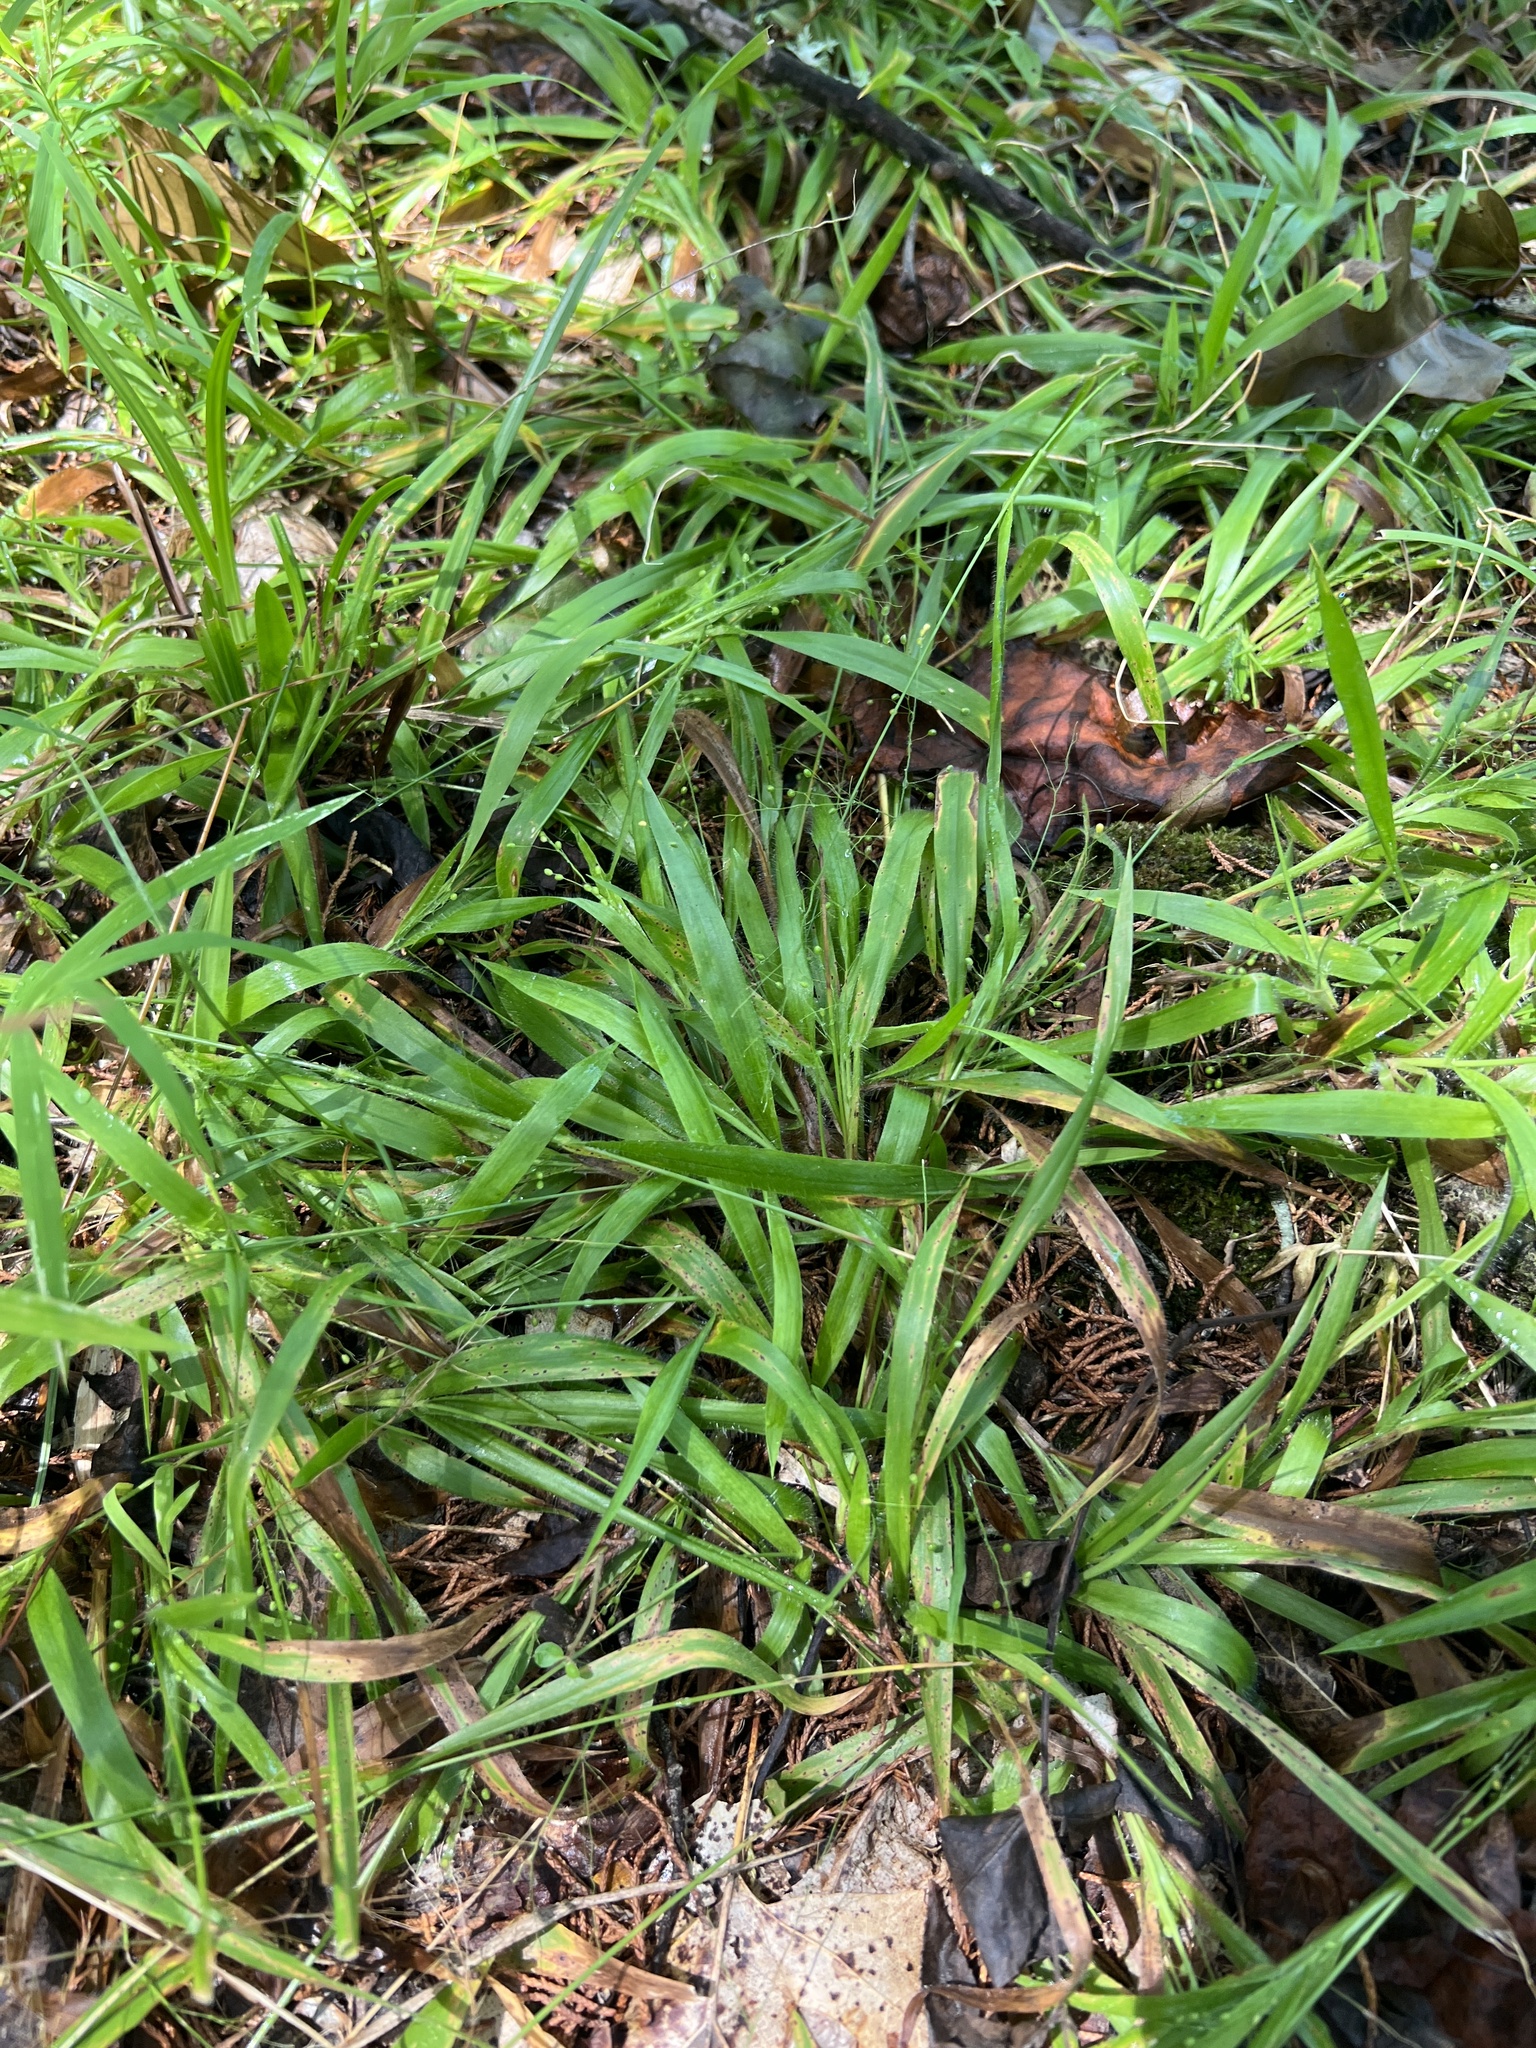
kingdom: Plantae
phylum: Tracheophyta
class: Liliopsida
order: Poales
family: Poaceae
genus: Dichanthelium
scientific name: Dichanthelium laxiflorum
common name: Soft-tuft panic grass
